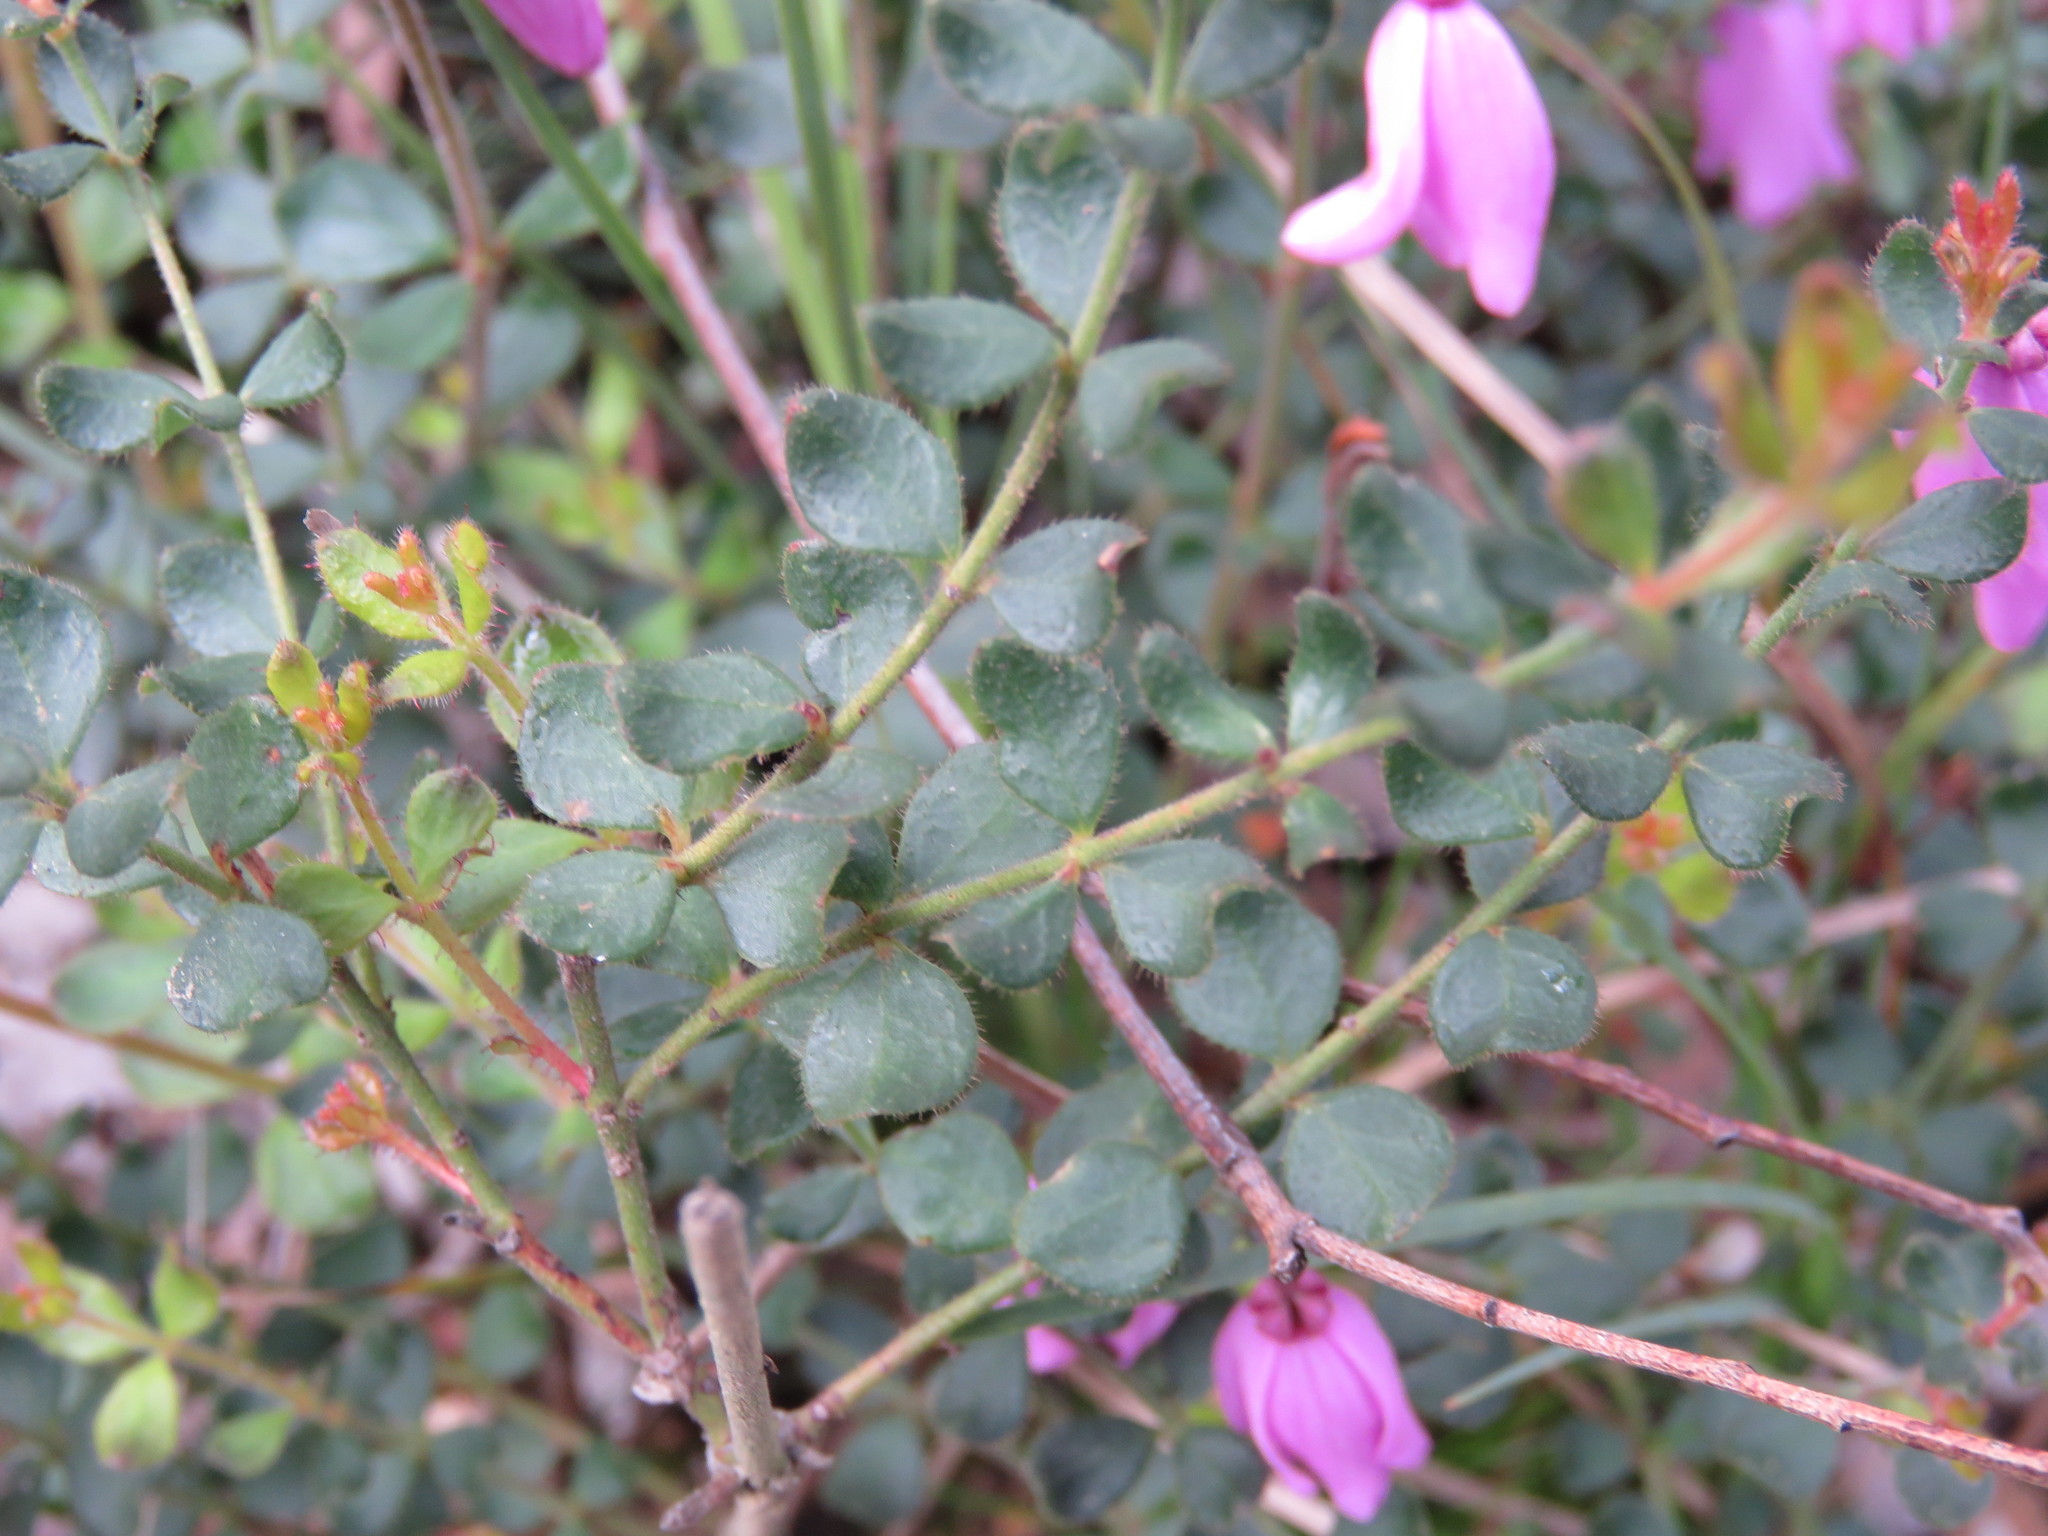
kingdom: Plantae
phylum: Tracheophyta
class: Magnoliopsida
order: Oxalidales
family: Elaeocarpaceae
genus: Tetratheca
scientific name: Tetratheca ciliata
